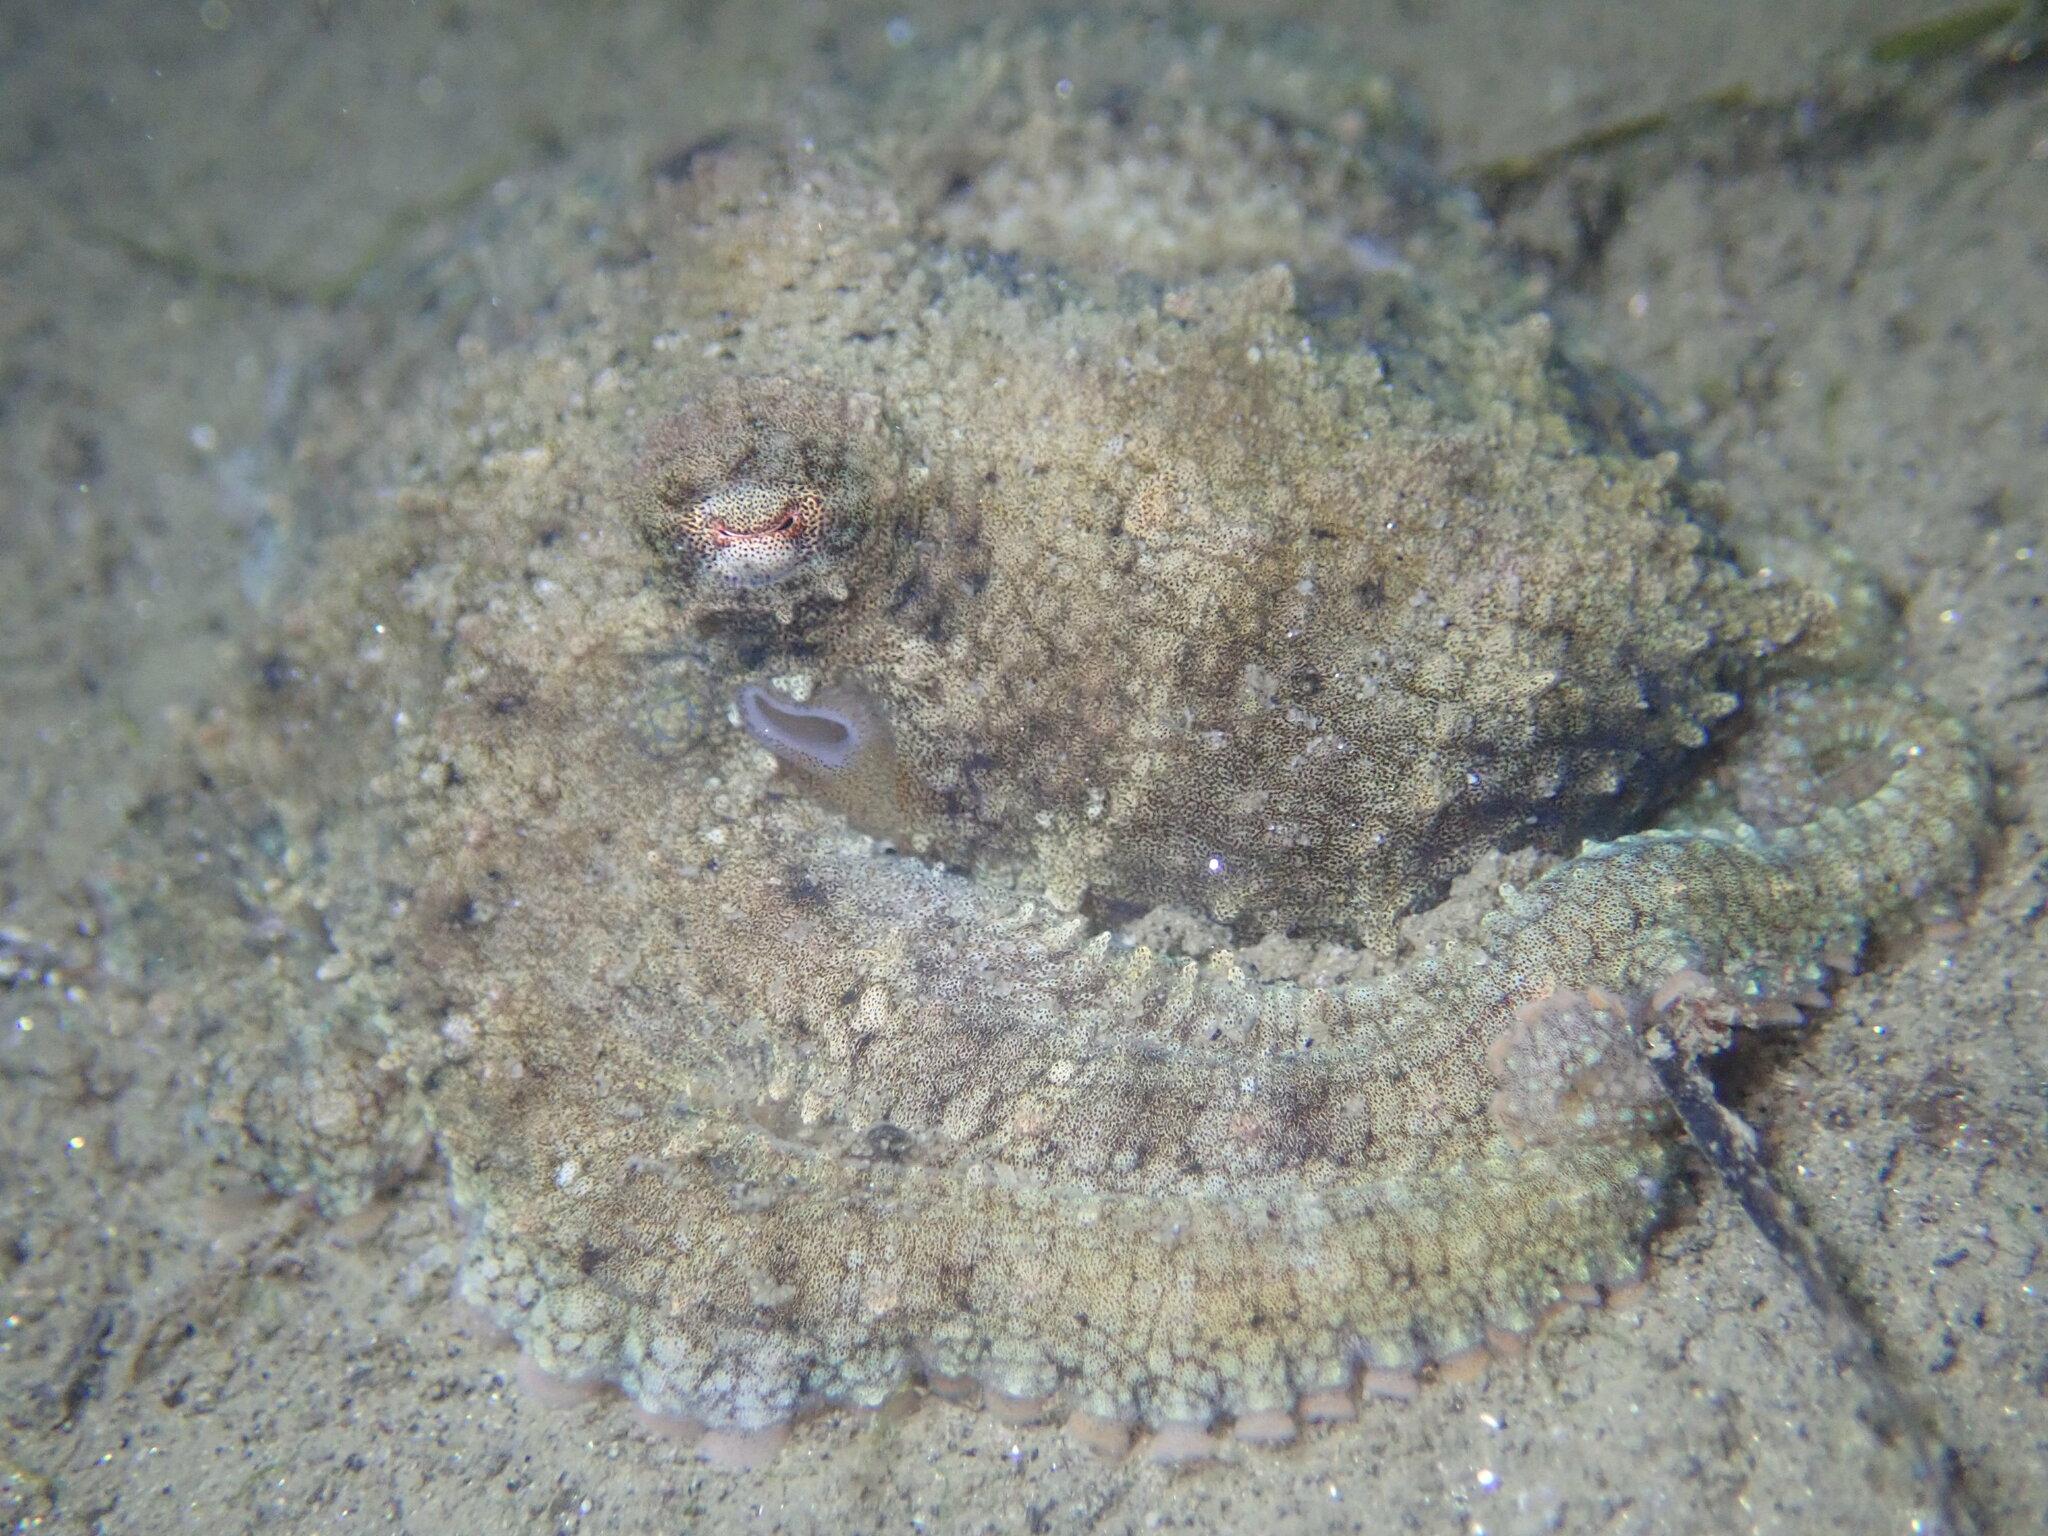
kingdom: Animalia
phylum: Mollusca
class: Cephalopoda
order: Octopoda
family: Octopodidae
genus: Octopus
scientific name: Octopus bimaculoides
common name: California two-spot octopus
